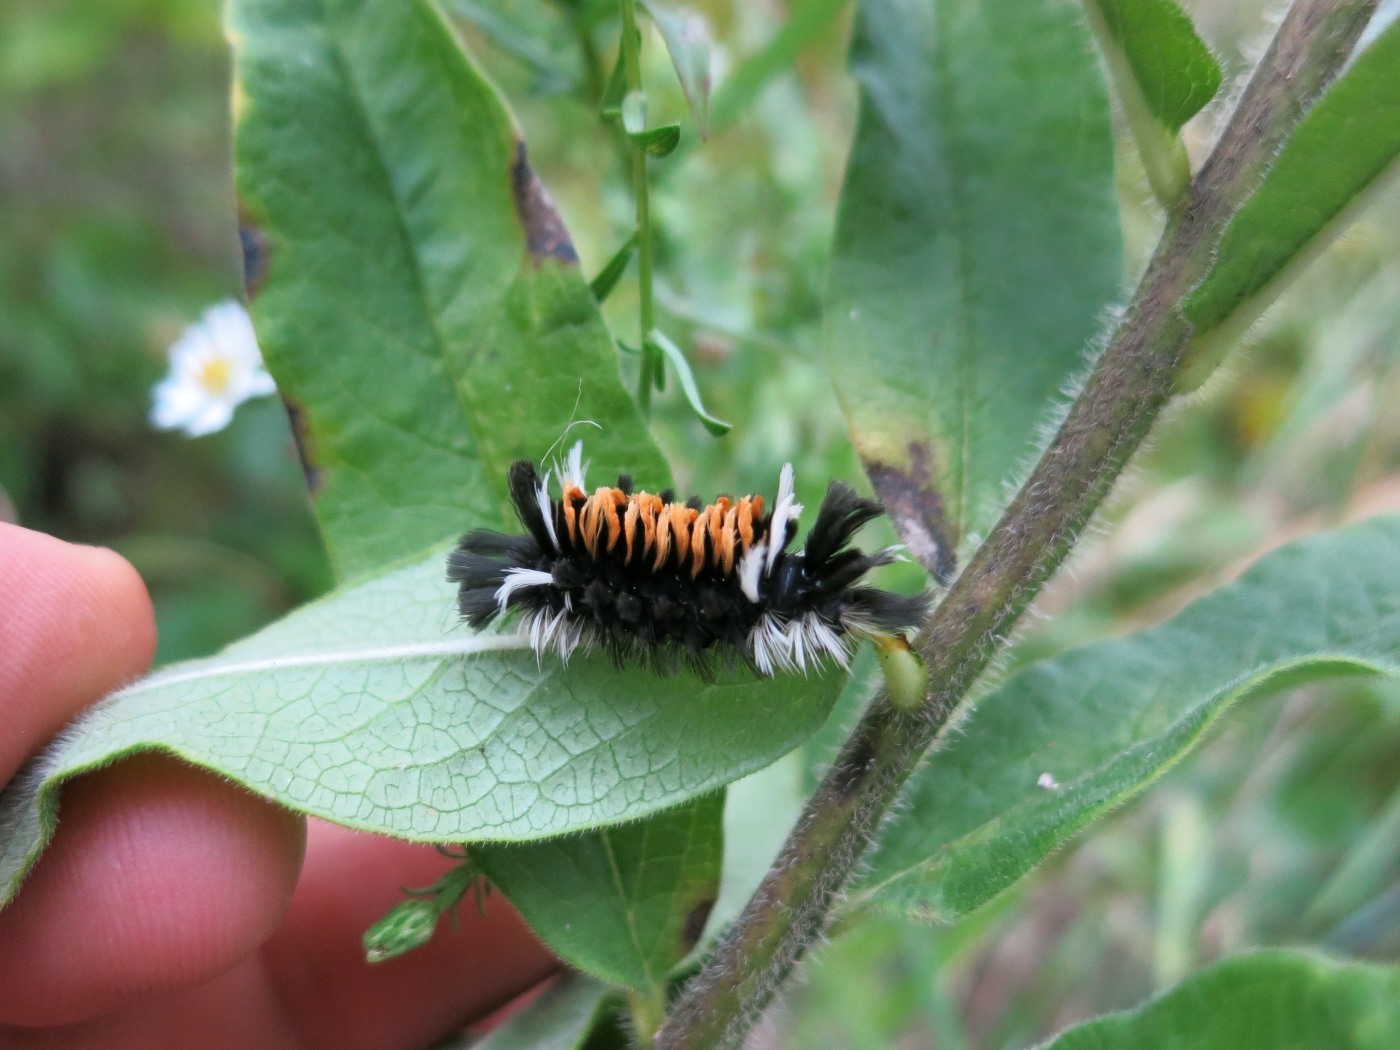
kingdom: Animalia
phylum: Arthropoda
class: Insecta
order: Lepidoptera
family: Erebidae
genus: Euchaetes
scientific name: Euchaetes egle
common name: Milkweed tussock moth
